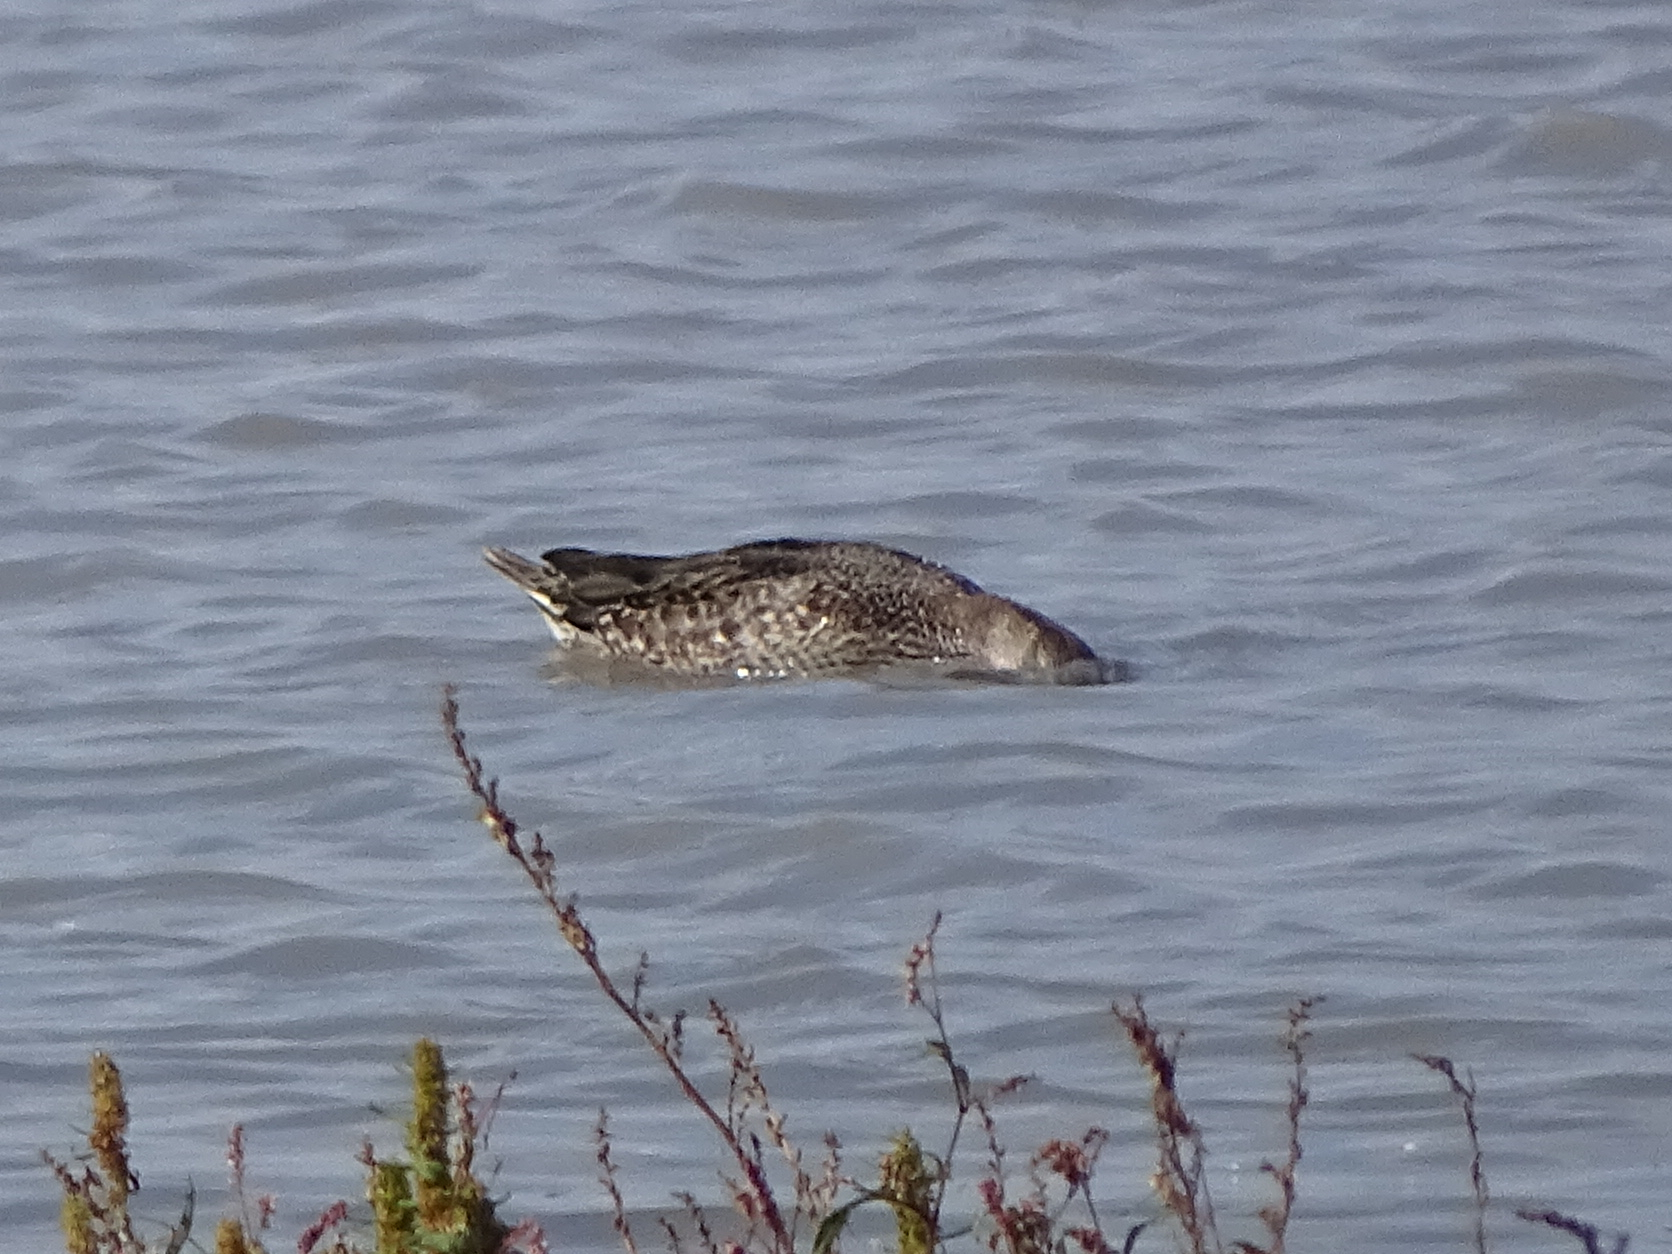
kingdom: Animalia
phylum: Chordata
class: Aves
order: Anseriformes
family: Anatidae
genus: Anas
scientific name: Anas crecca
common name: Eurasian teal
